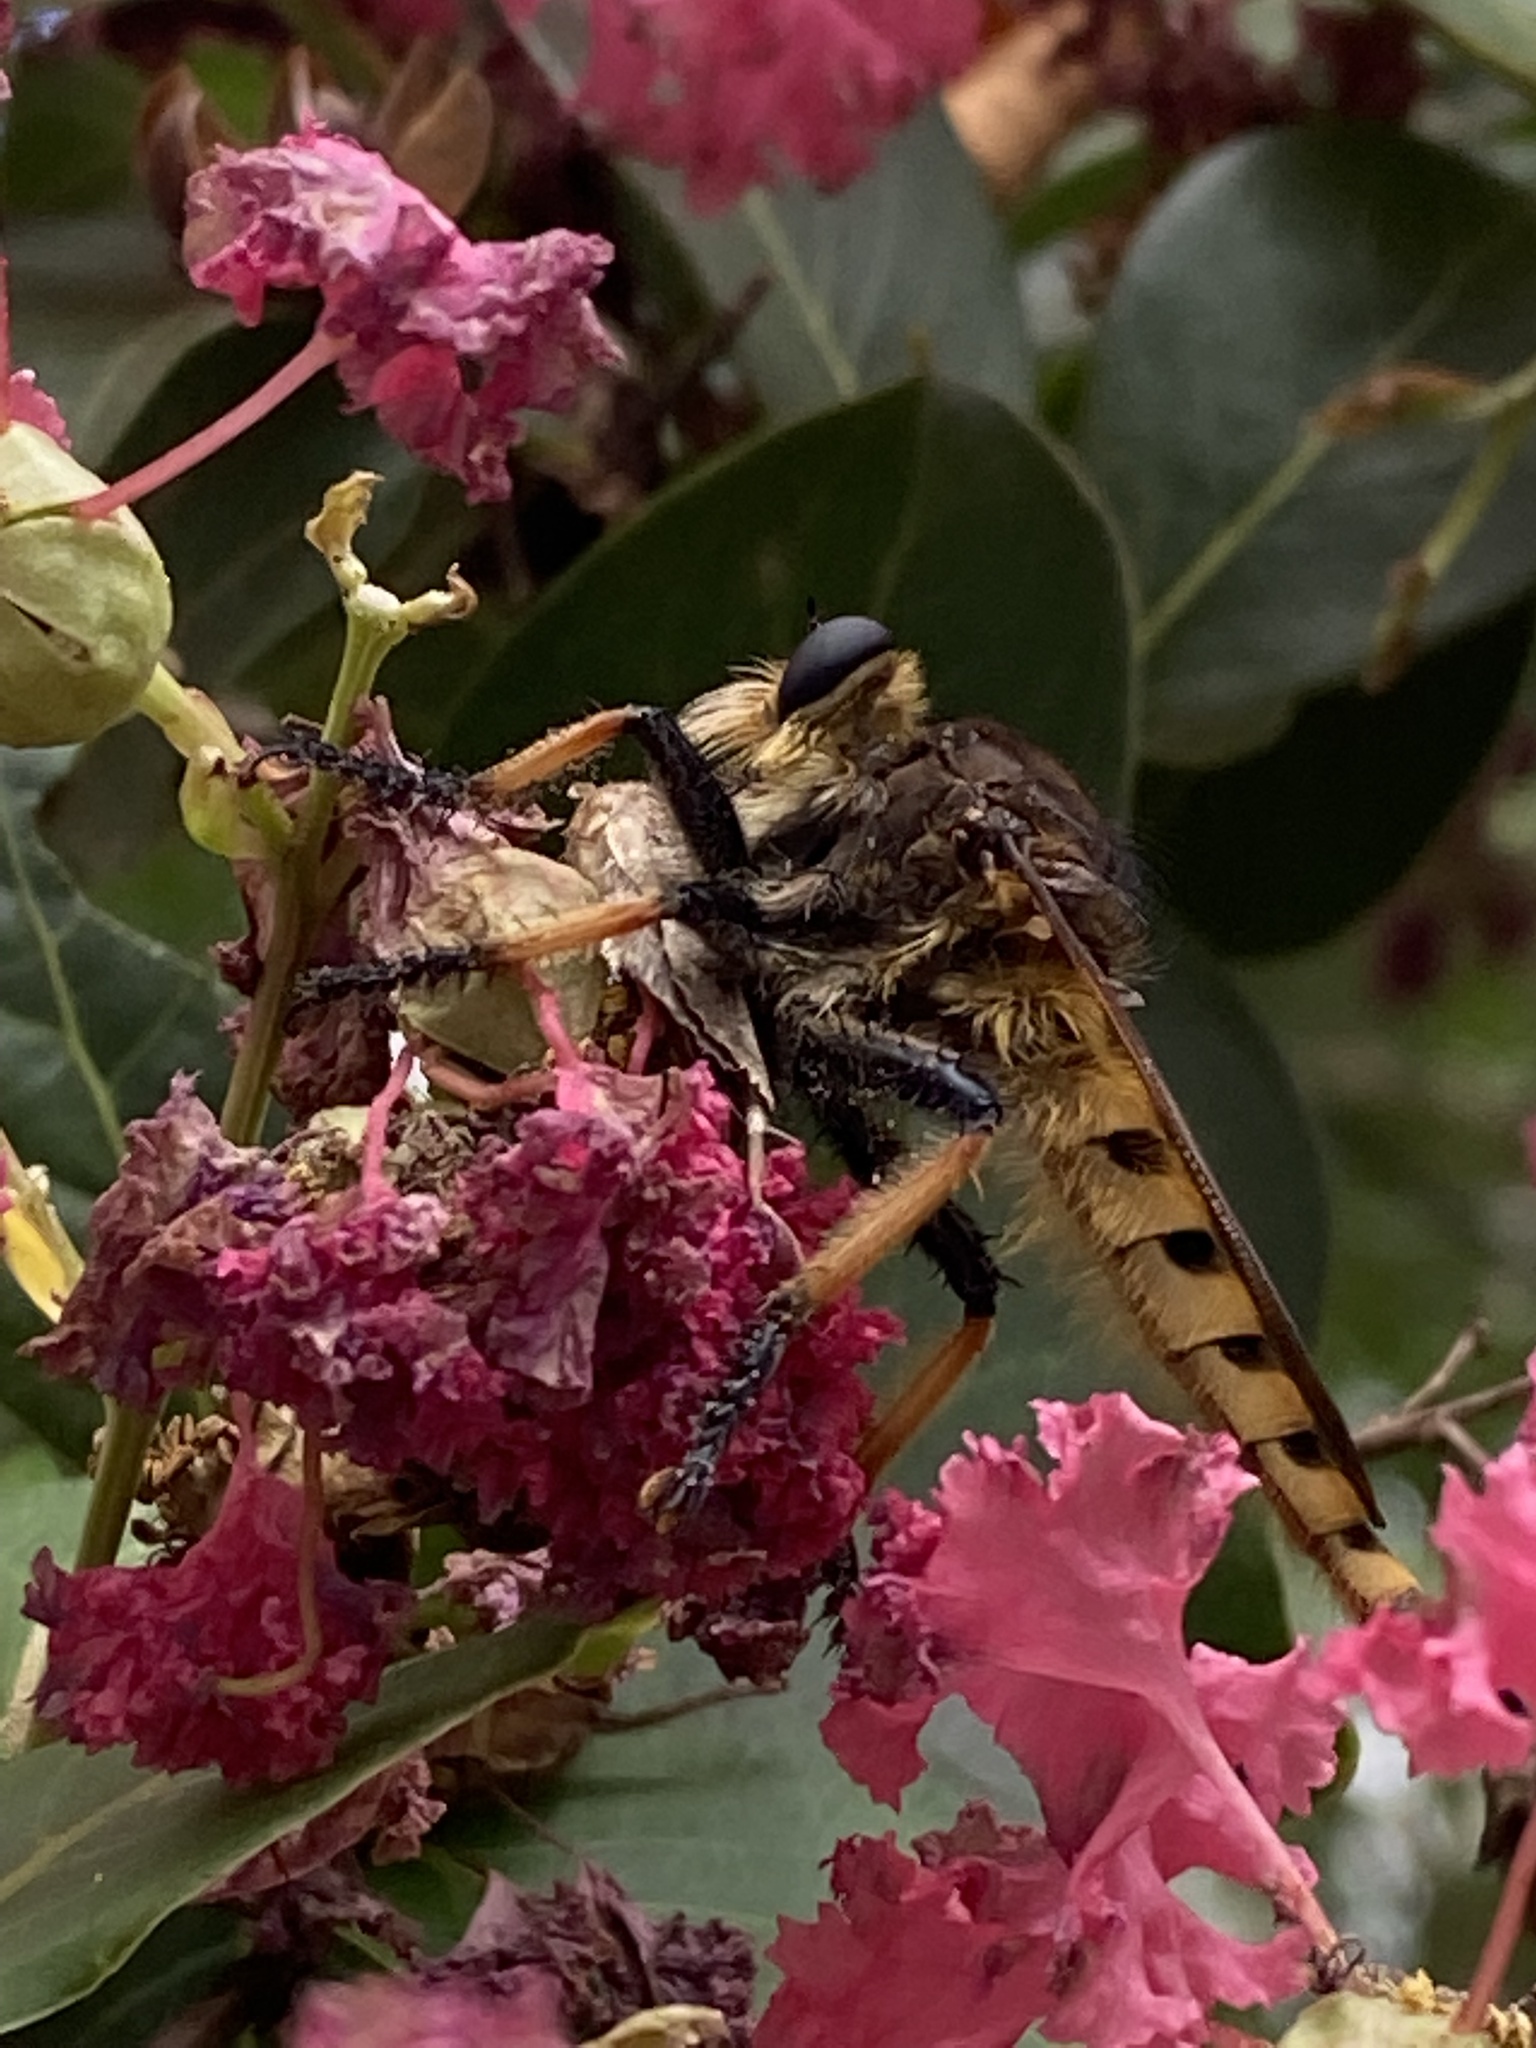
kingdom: Animalia
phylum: Arthropoda
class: Insecta
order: Diptera
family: Asilidae
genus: Promachus
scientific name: Promachus rufipes
